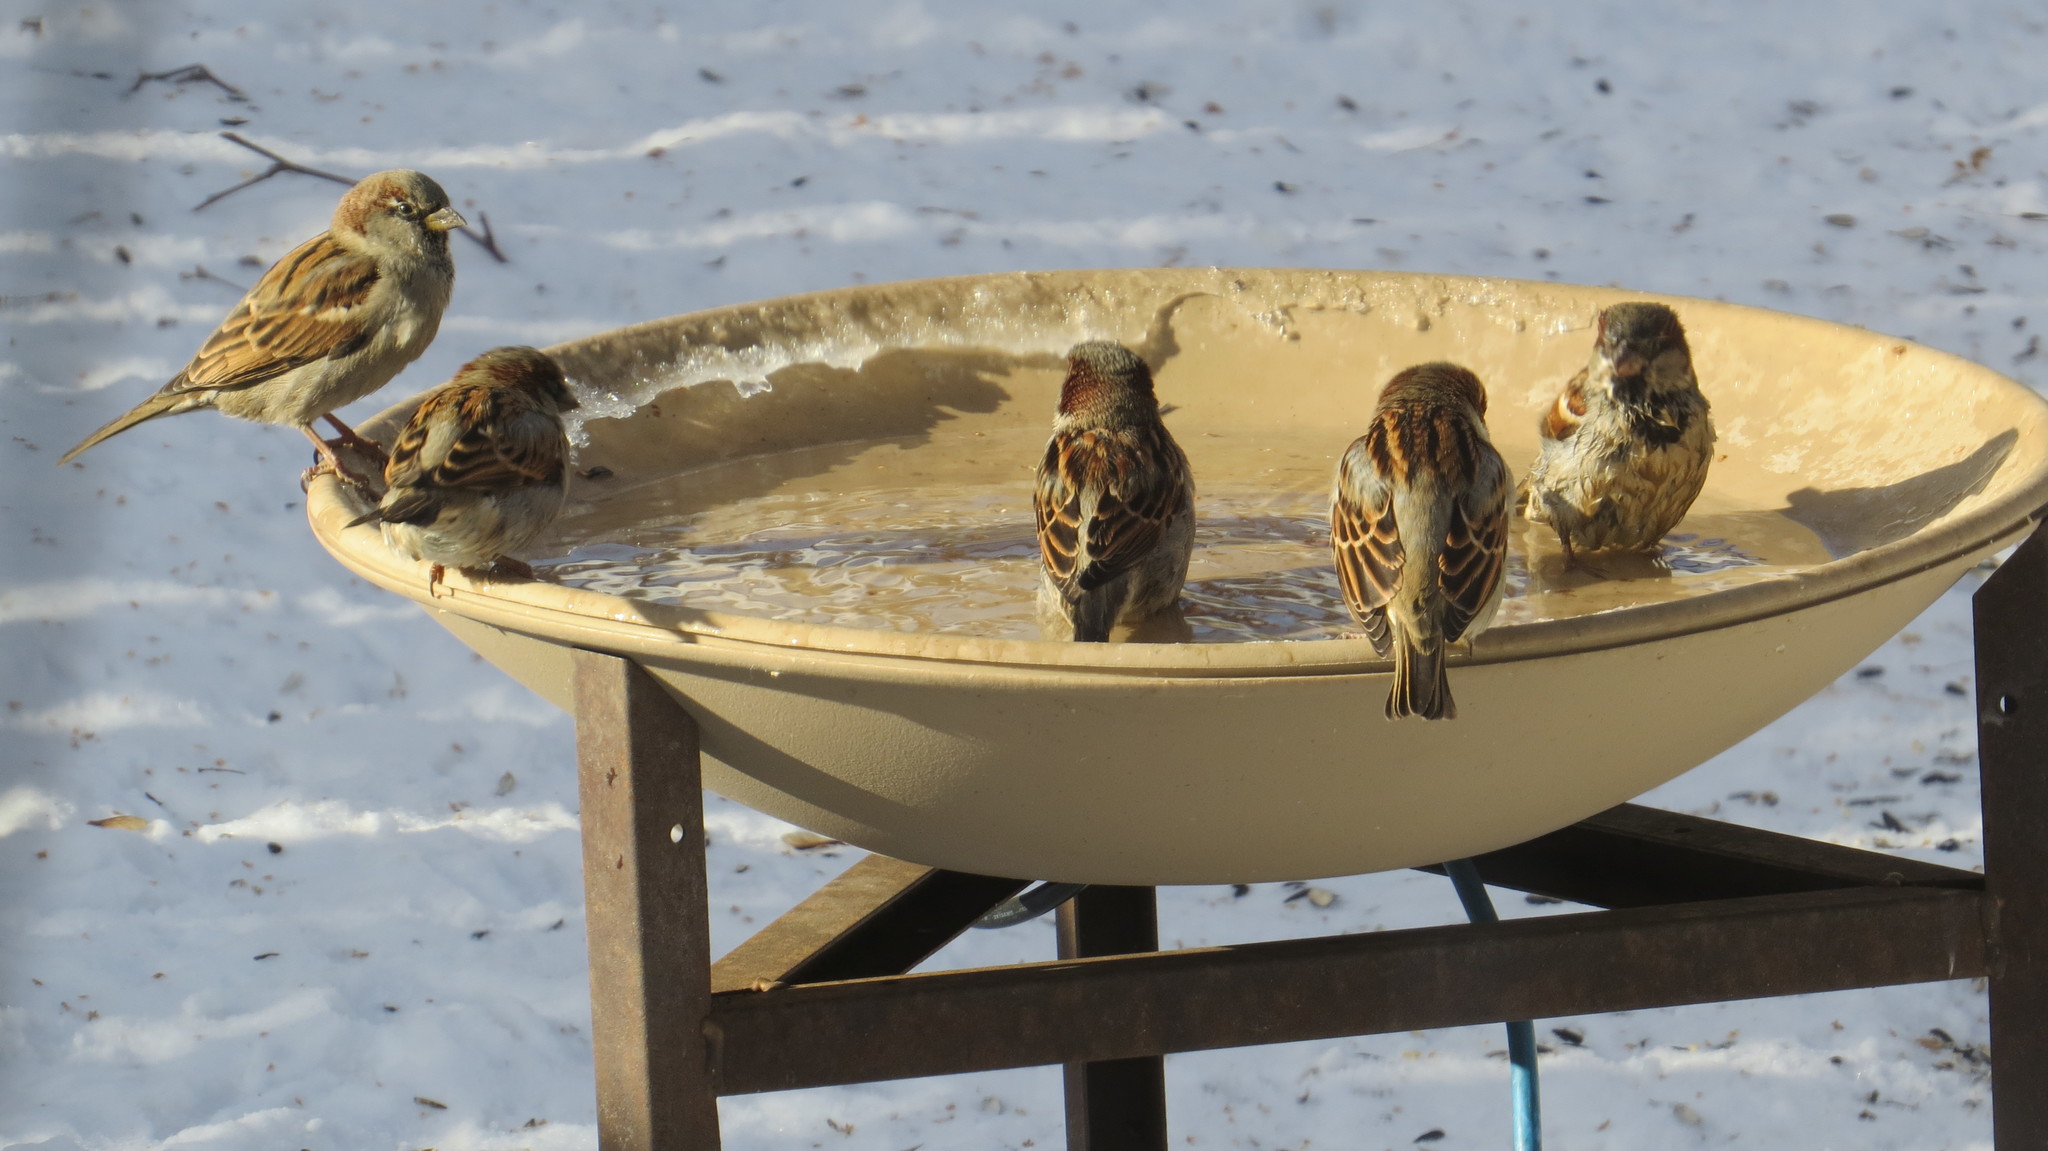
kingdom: Animalia
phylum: Chordata
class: Aves
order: Passeriformes
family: Passeridae
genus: Passer
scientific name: Passer domesticus
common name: House sparrow
